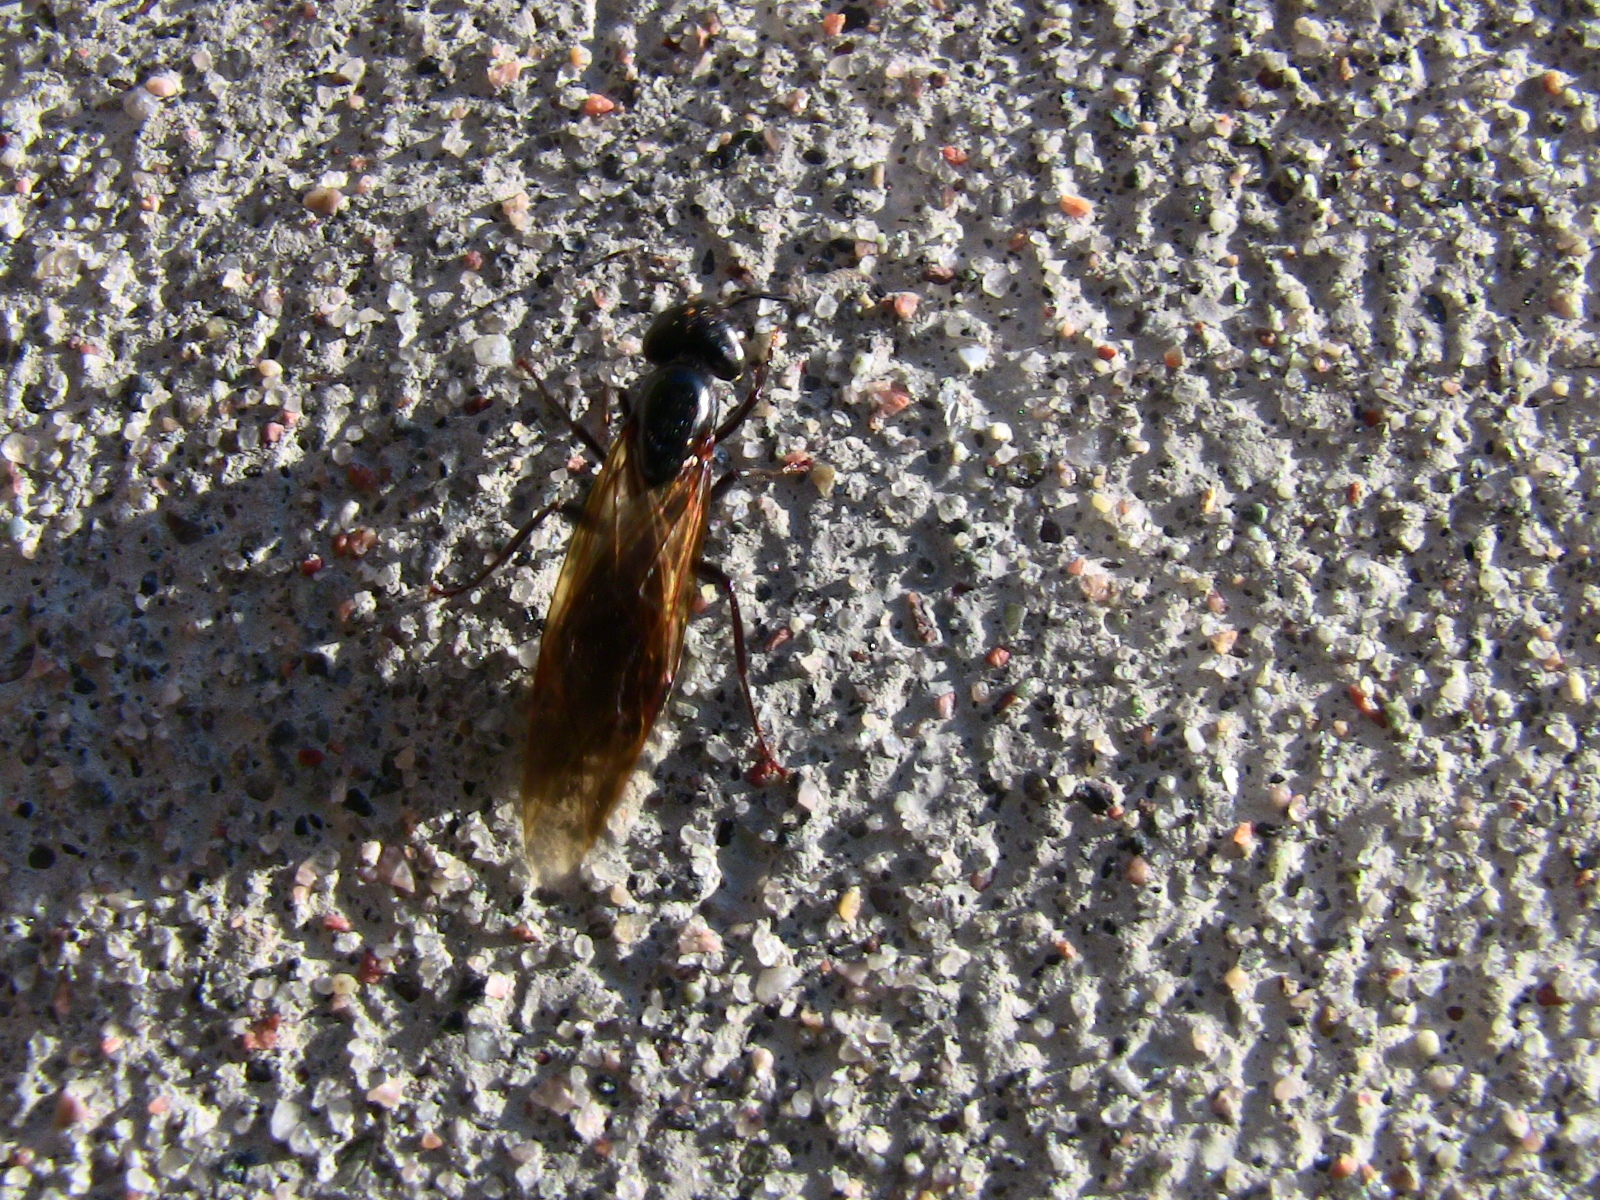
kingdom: Animalia
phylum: Arthropoda
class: Insecta
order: Hymenoptera
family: Formicidae
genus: Camponotus
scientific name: Camponotus pennsylvanicus
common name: Black carpenter ant
